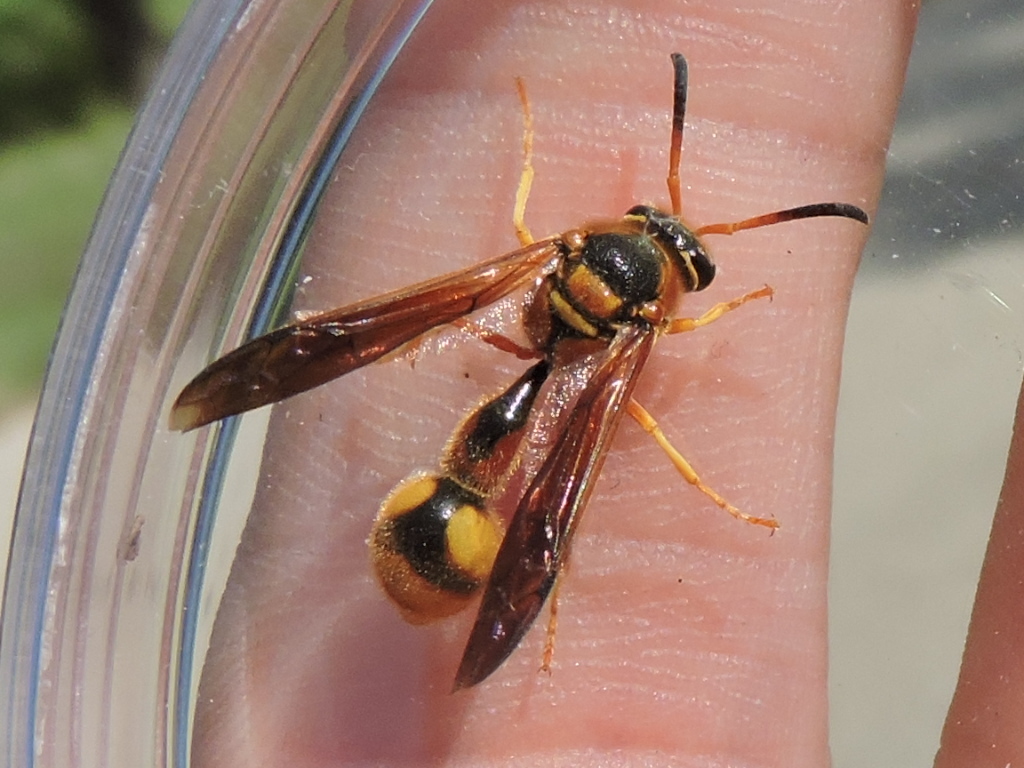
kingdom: Animalia
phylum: Arthropoda
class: Insecta
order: Hymenoptera
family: Vespidae
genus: Eumenes
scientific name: Eumenes bollii
